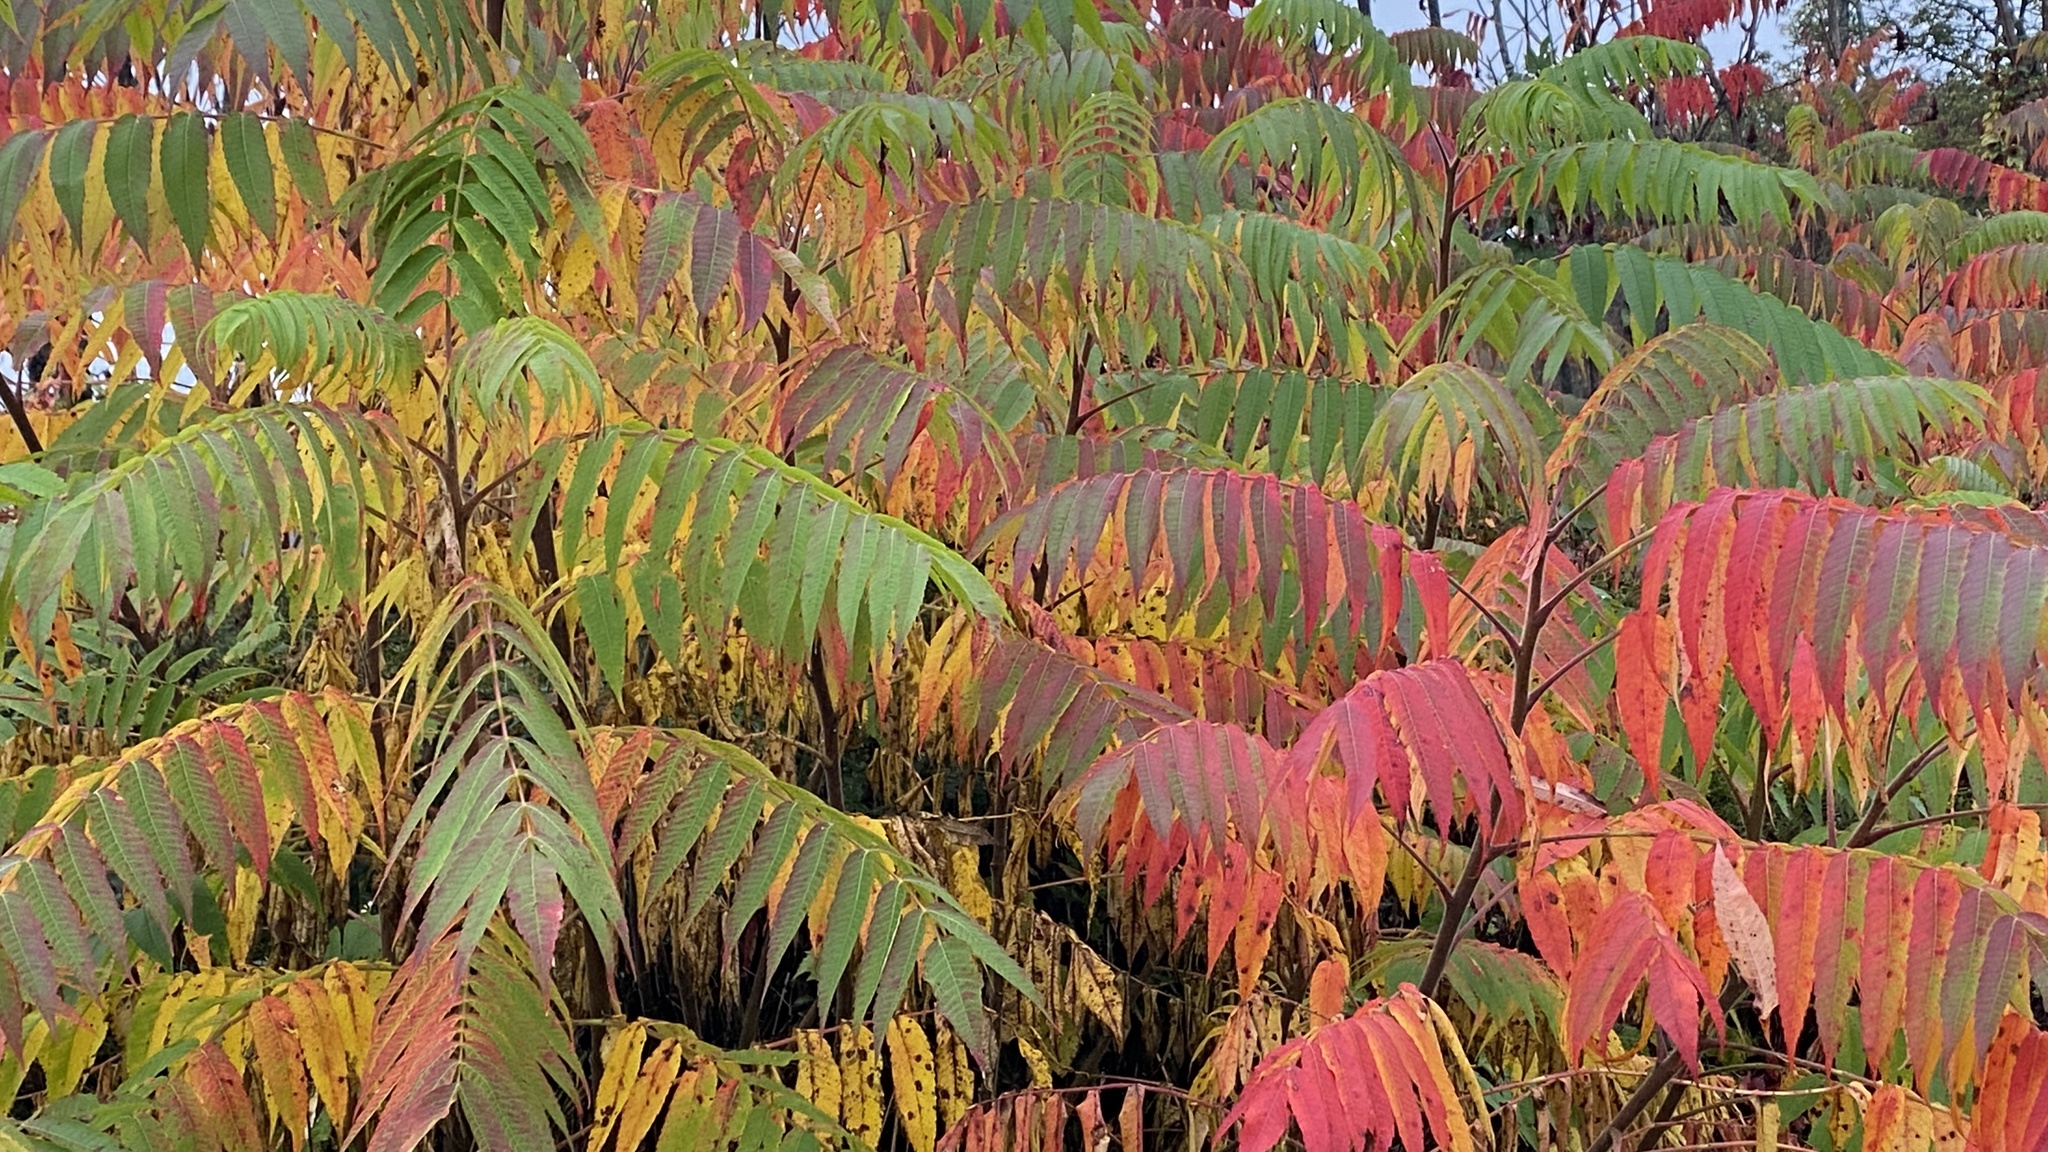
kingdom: Plantae
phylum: Tracheophyta
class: Magnoliopsida
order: Sapindales
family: Anacardiaceae
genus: Rhus
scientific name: Rhus typhina
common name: Staghorn sumac
